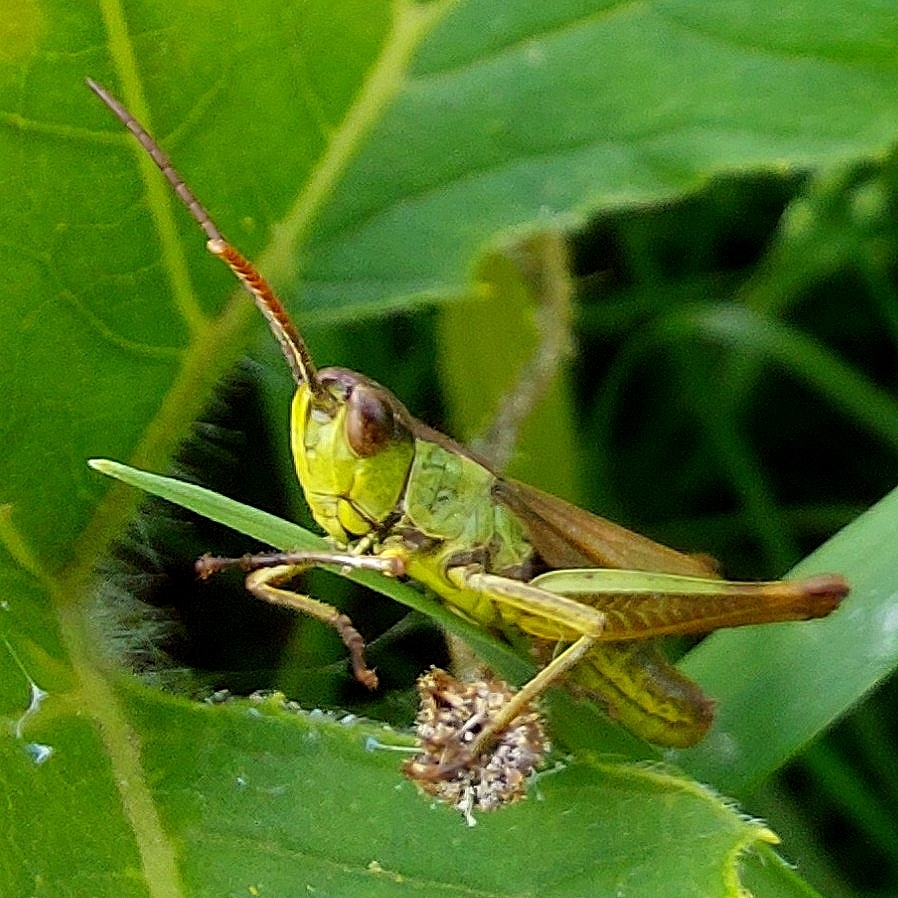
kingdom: Animalia
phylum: Arthropoda
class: Insecta
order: Orthoptera
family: Acrididae
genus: Pseudochorthippus
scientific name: Pseudochorthippus parallelus
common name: Meadow grasshopper
